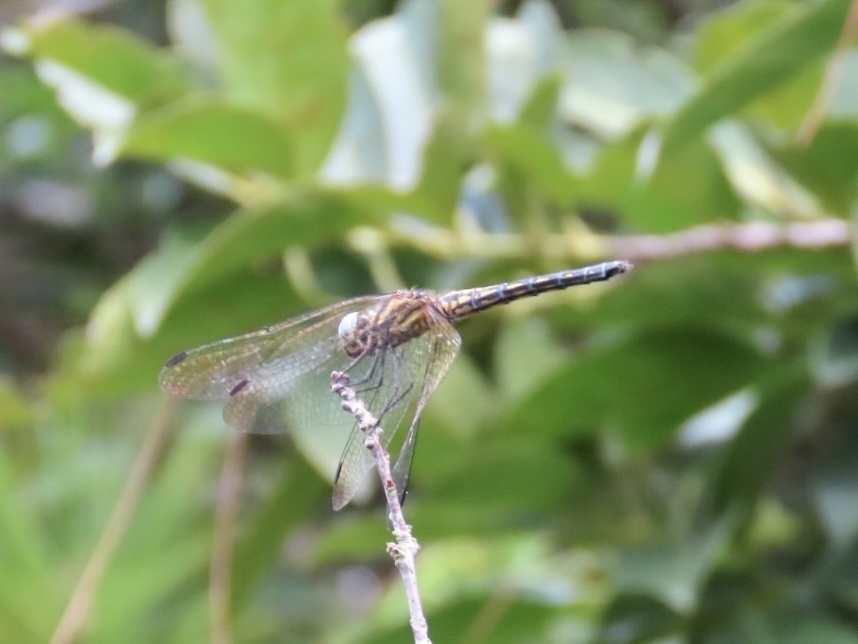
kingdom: Animalia
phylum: Arthropoda
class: Insecta
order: Odonata
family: Libellulidae
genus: Trithemis
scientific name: Trithemis aurora
